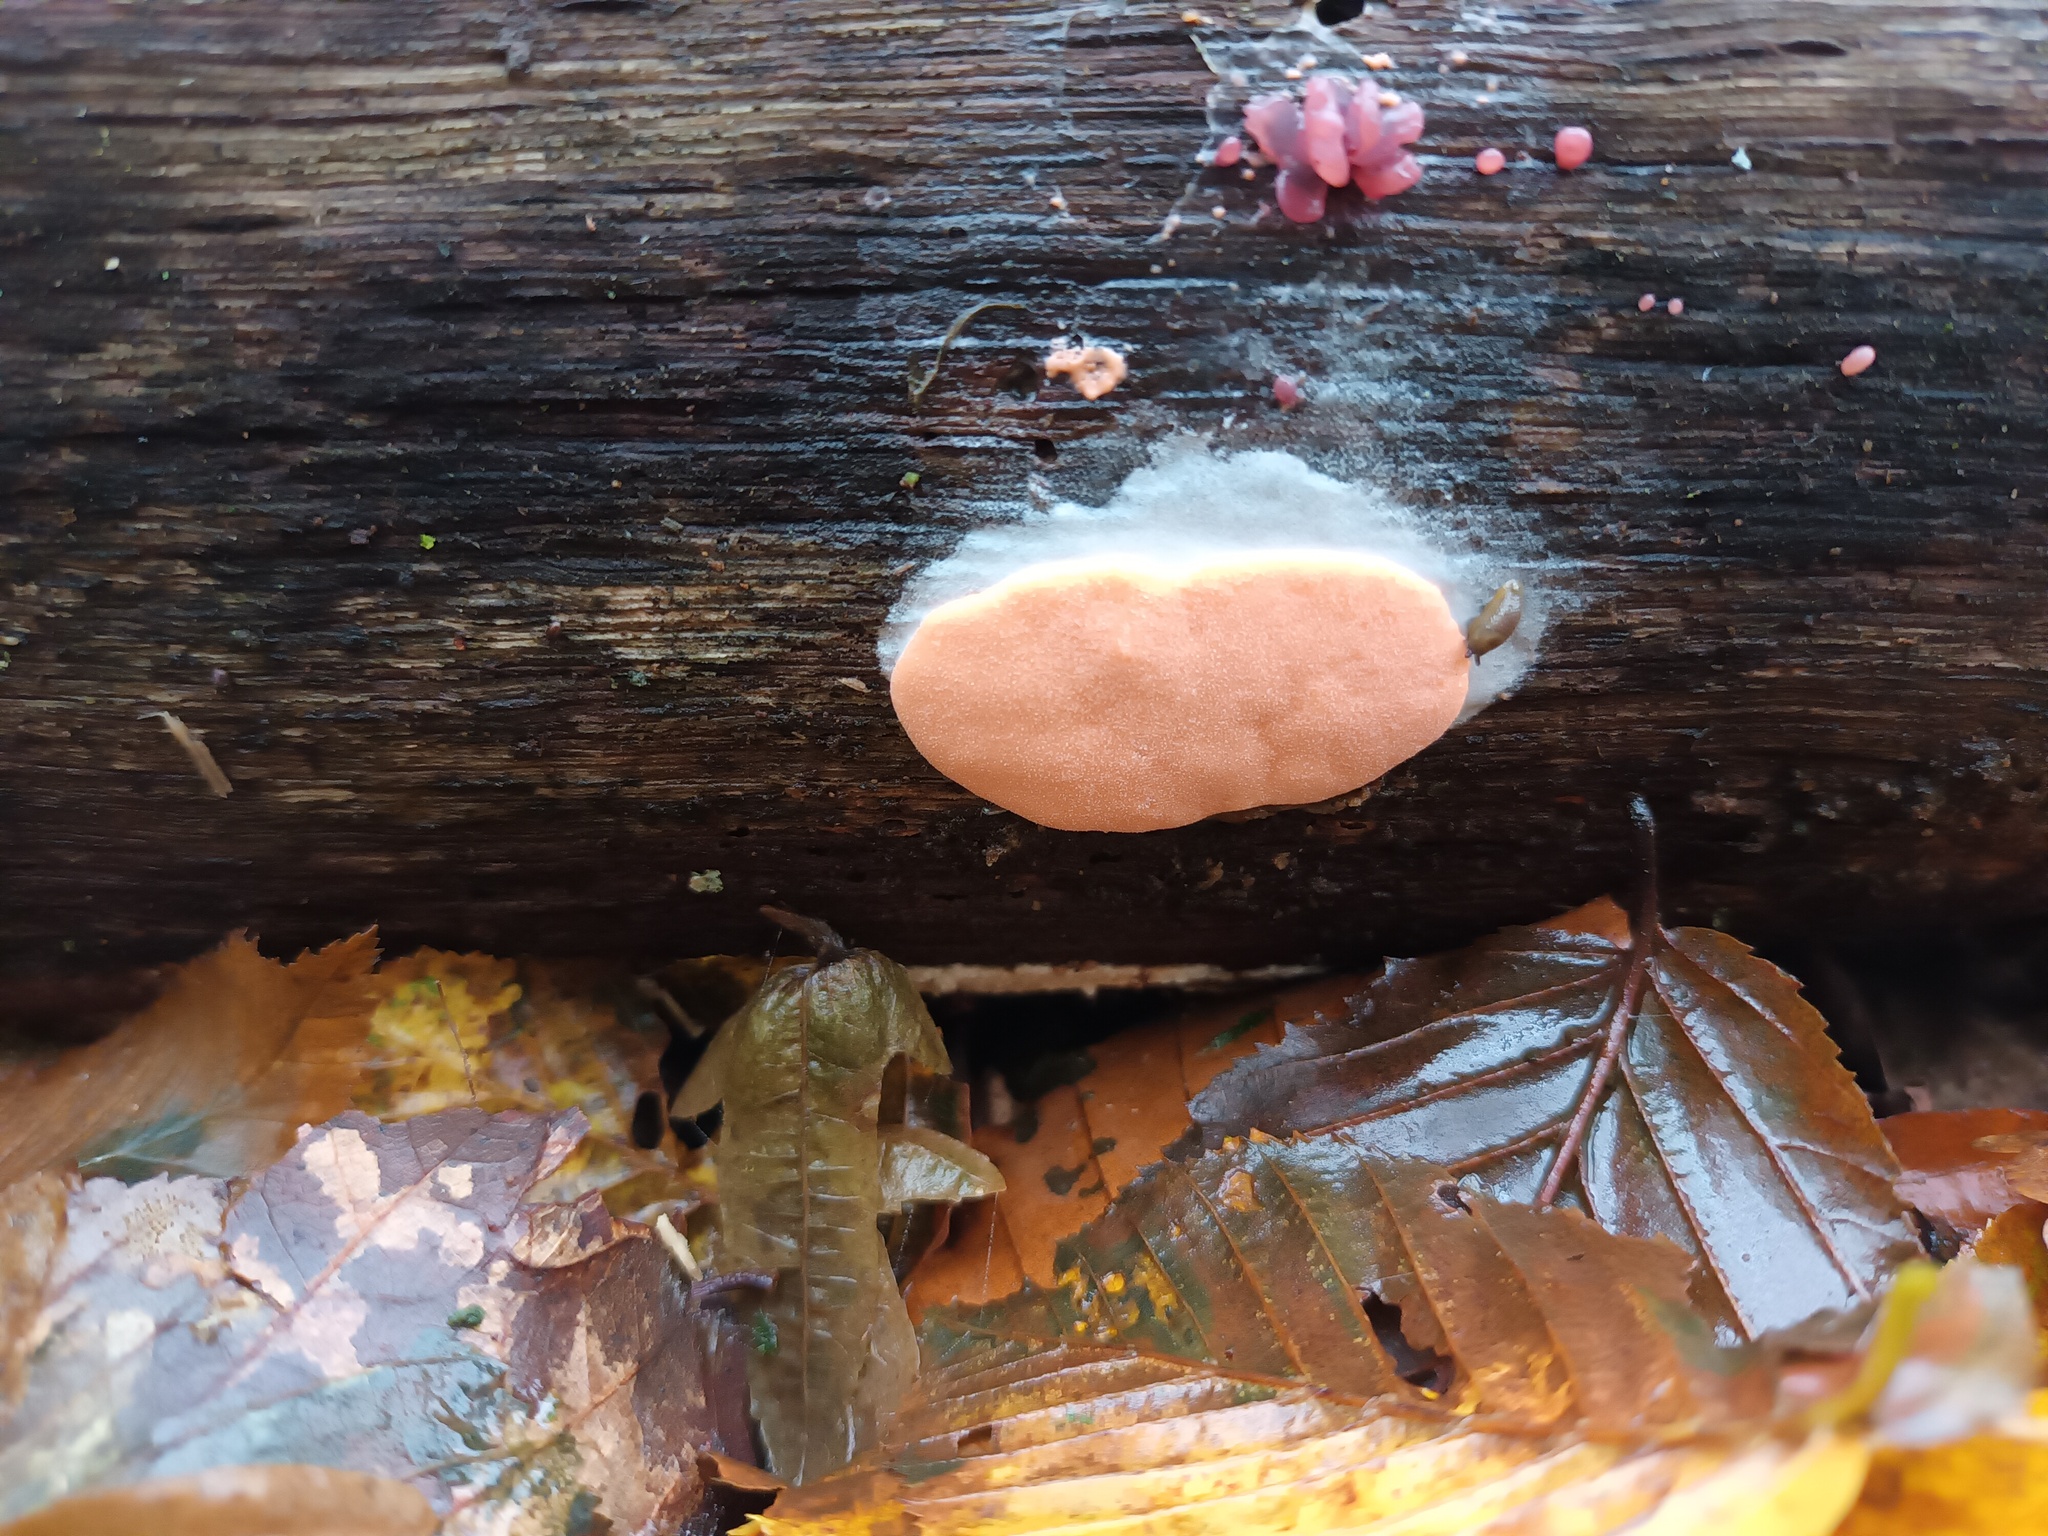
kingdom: Protozoa
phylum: Mycetozoa
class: Myxomycetes
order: Trichiales
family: Dictydiaethaliaceae
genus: Dictydiaethalium
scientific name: Dictydiaethalium plumbeum
